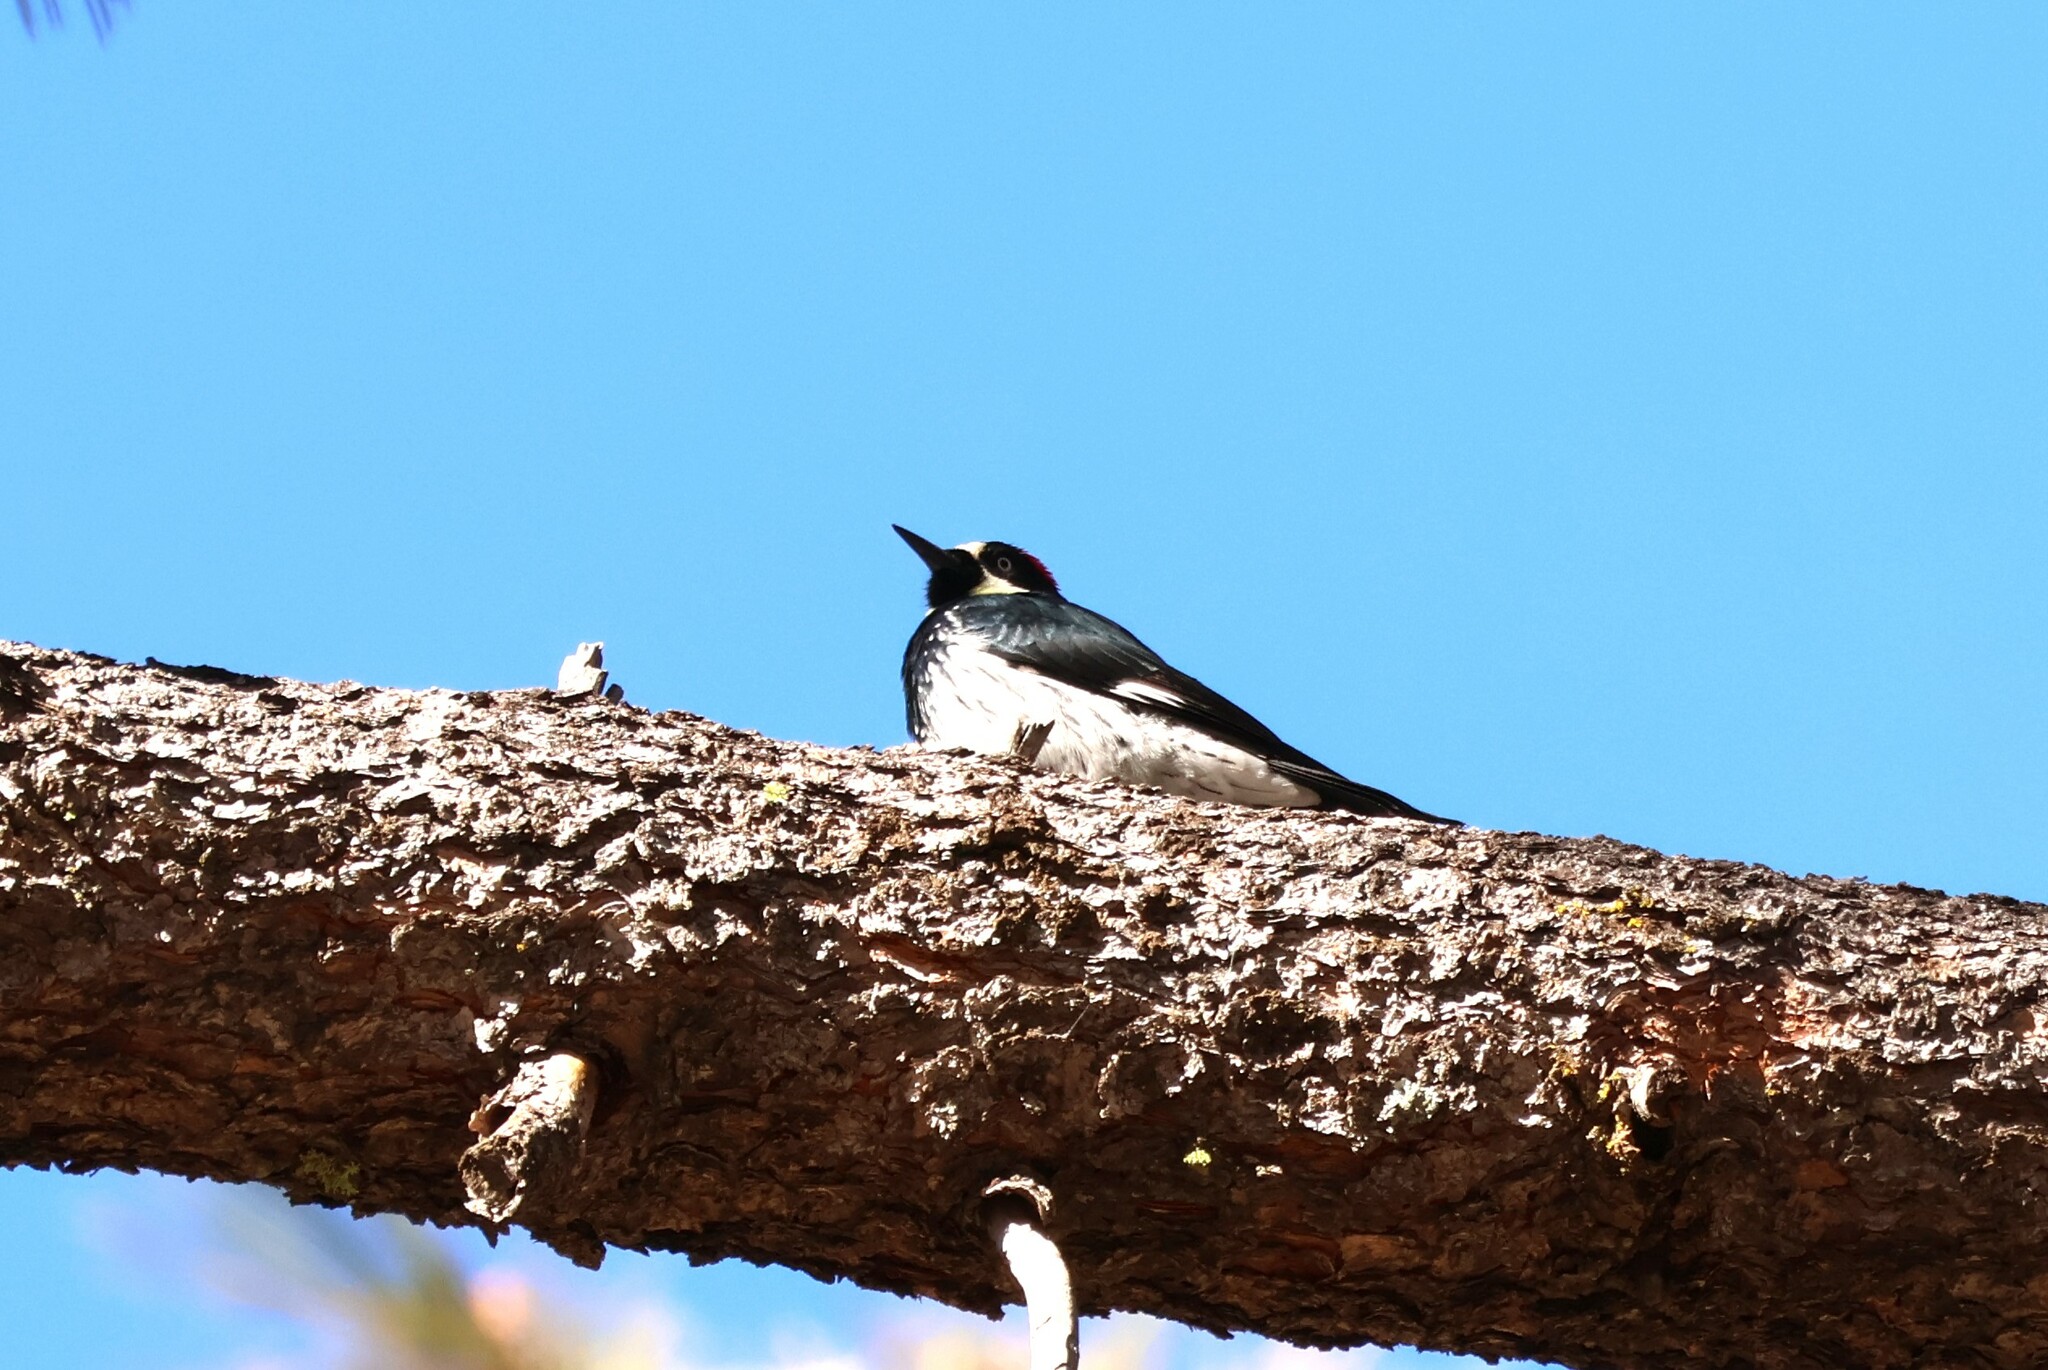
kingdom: Animalia
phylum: Chordata
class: Aves
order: Piciformes
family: Picidae
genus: Melanerpes
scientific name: Melanerpes formicivorus
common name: Acorn woodpecker
